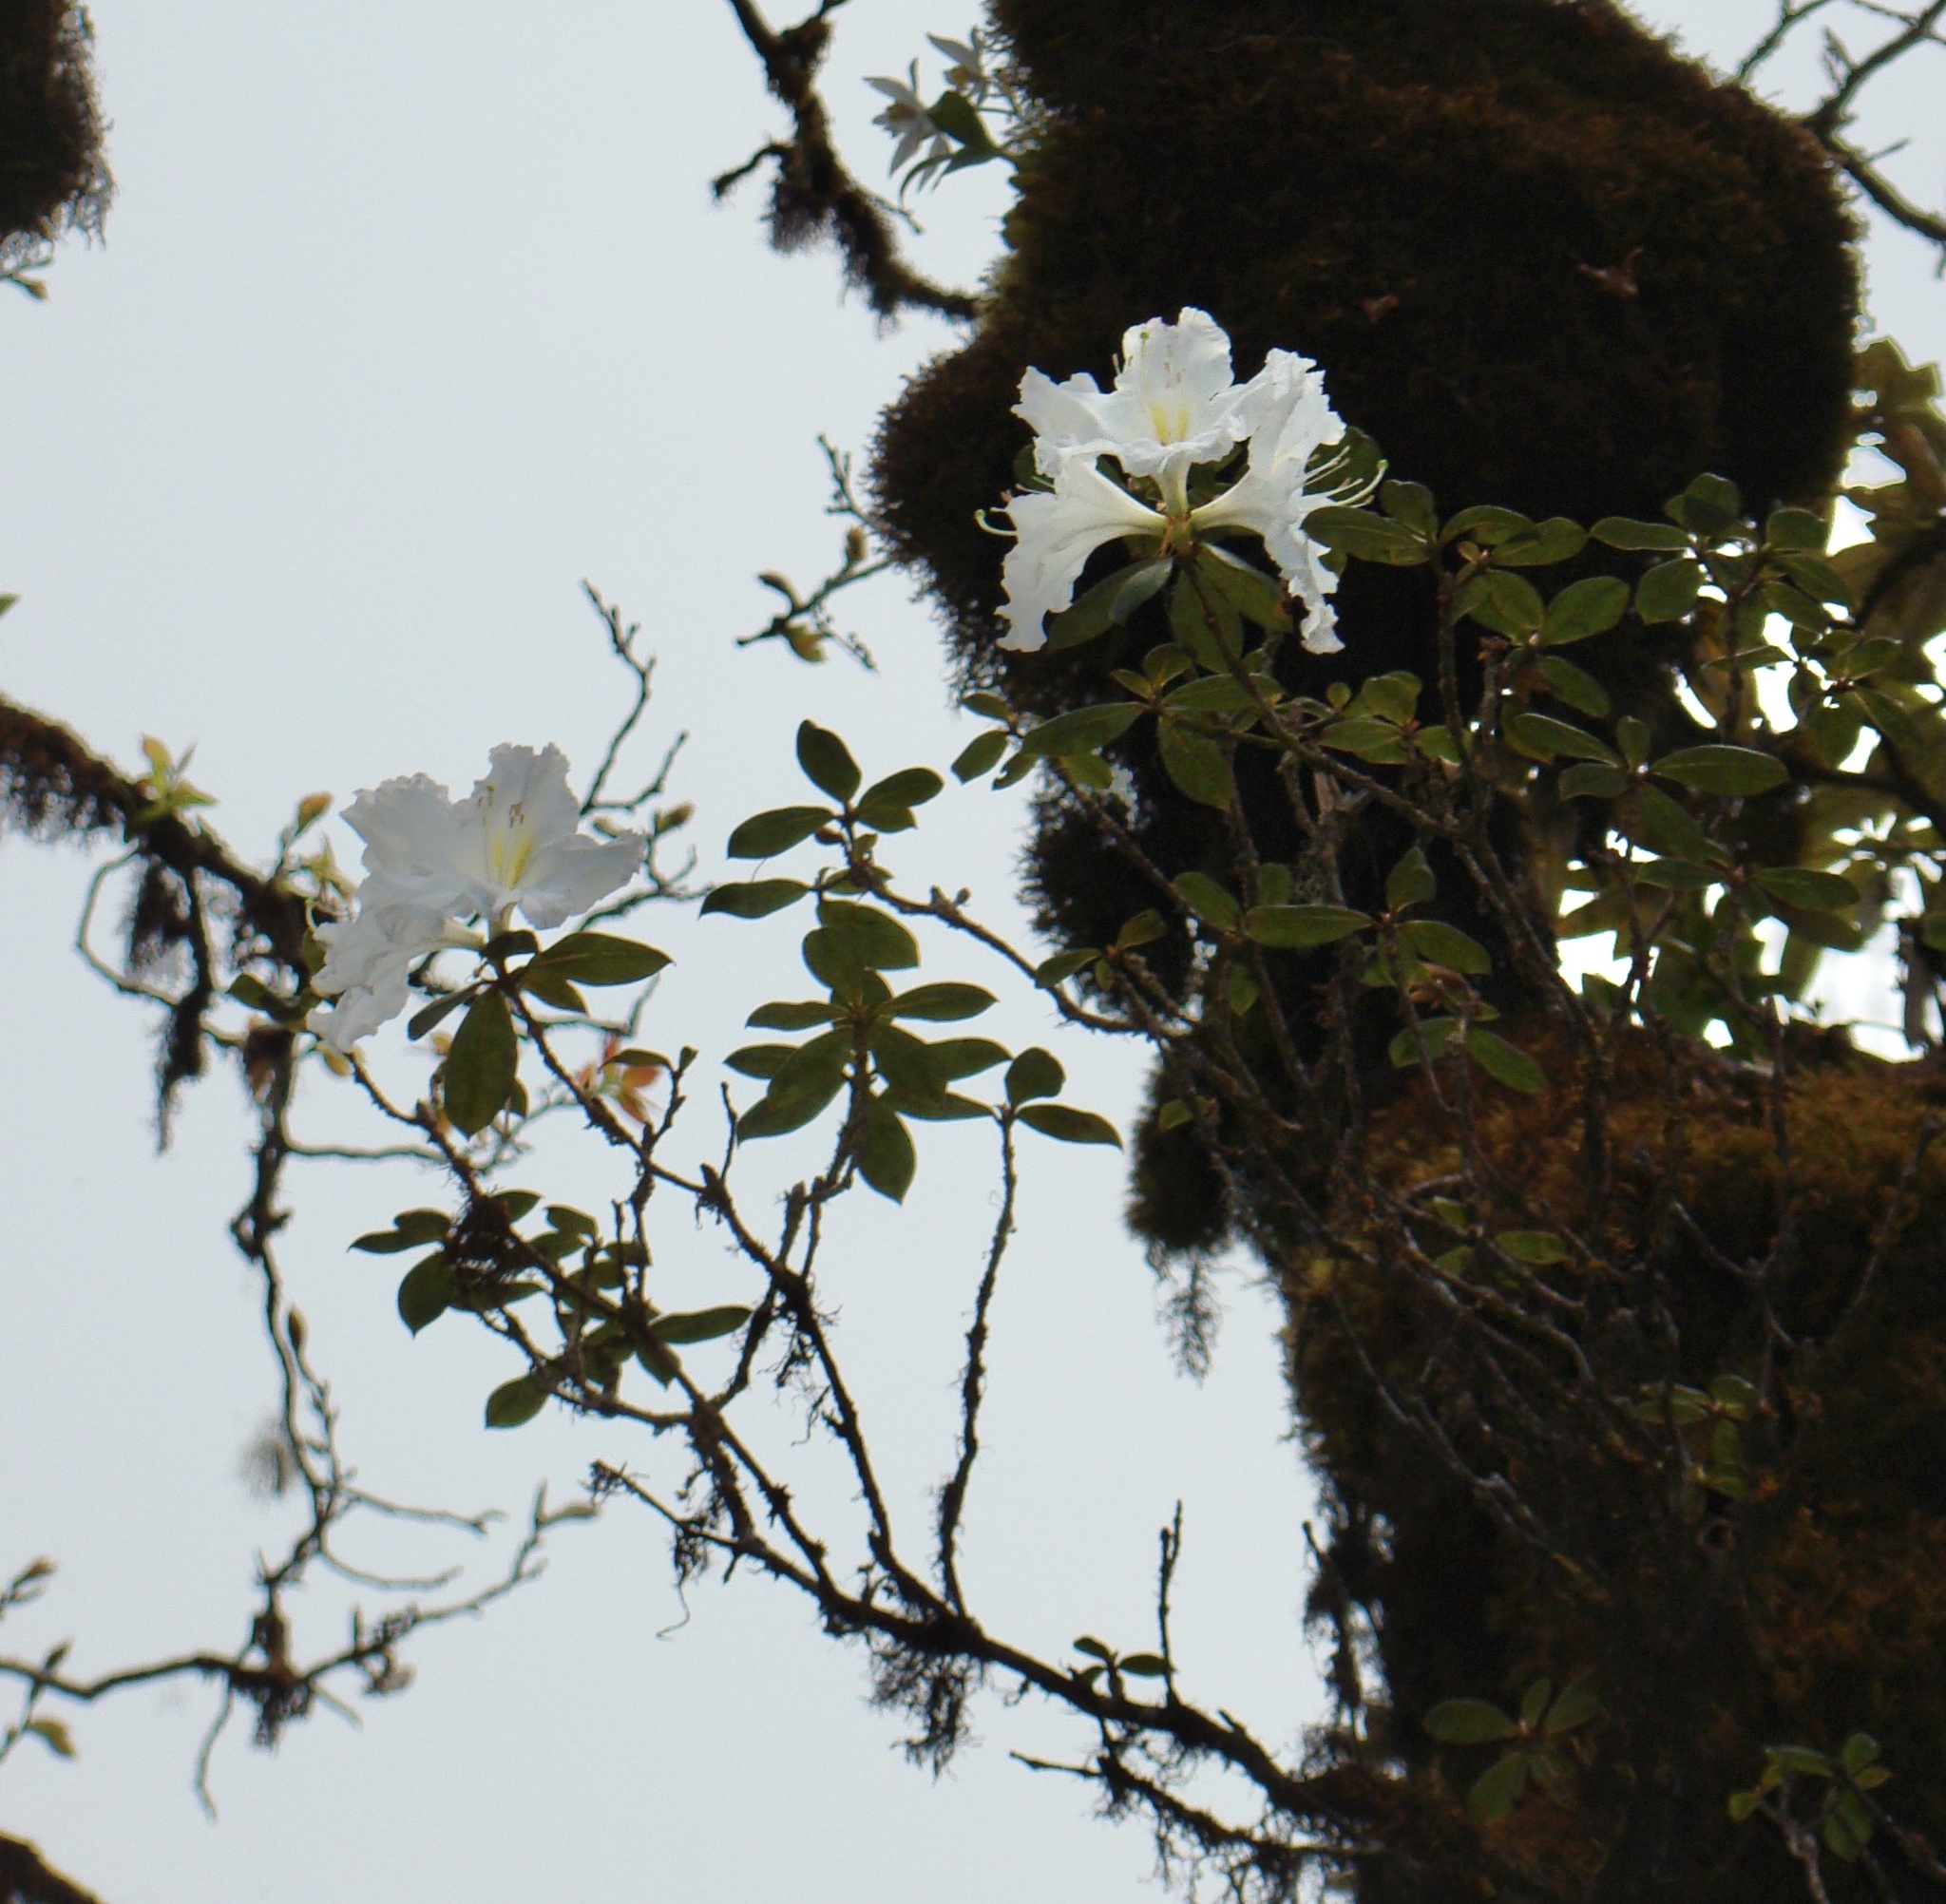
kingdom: Plantae
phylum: Tracheophyta
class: Magnoliopsida
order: Ericales
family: Ericaceae
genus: Rhododendron
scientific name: Rhododendron veitchianum
